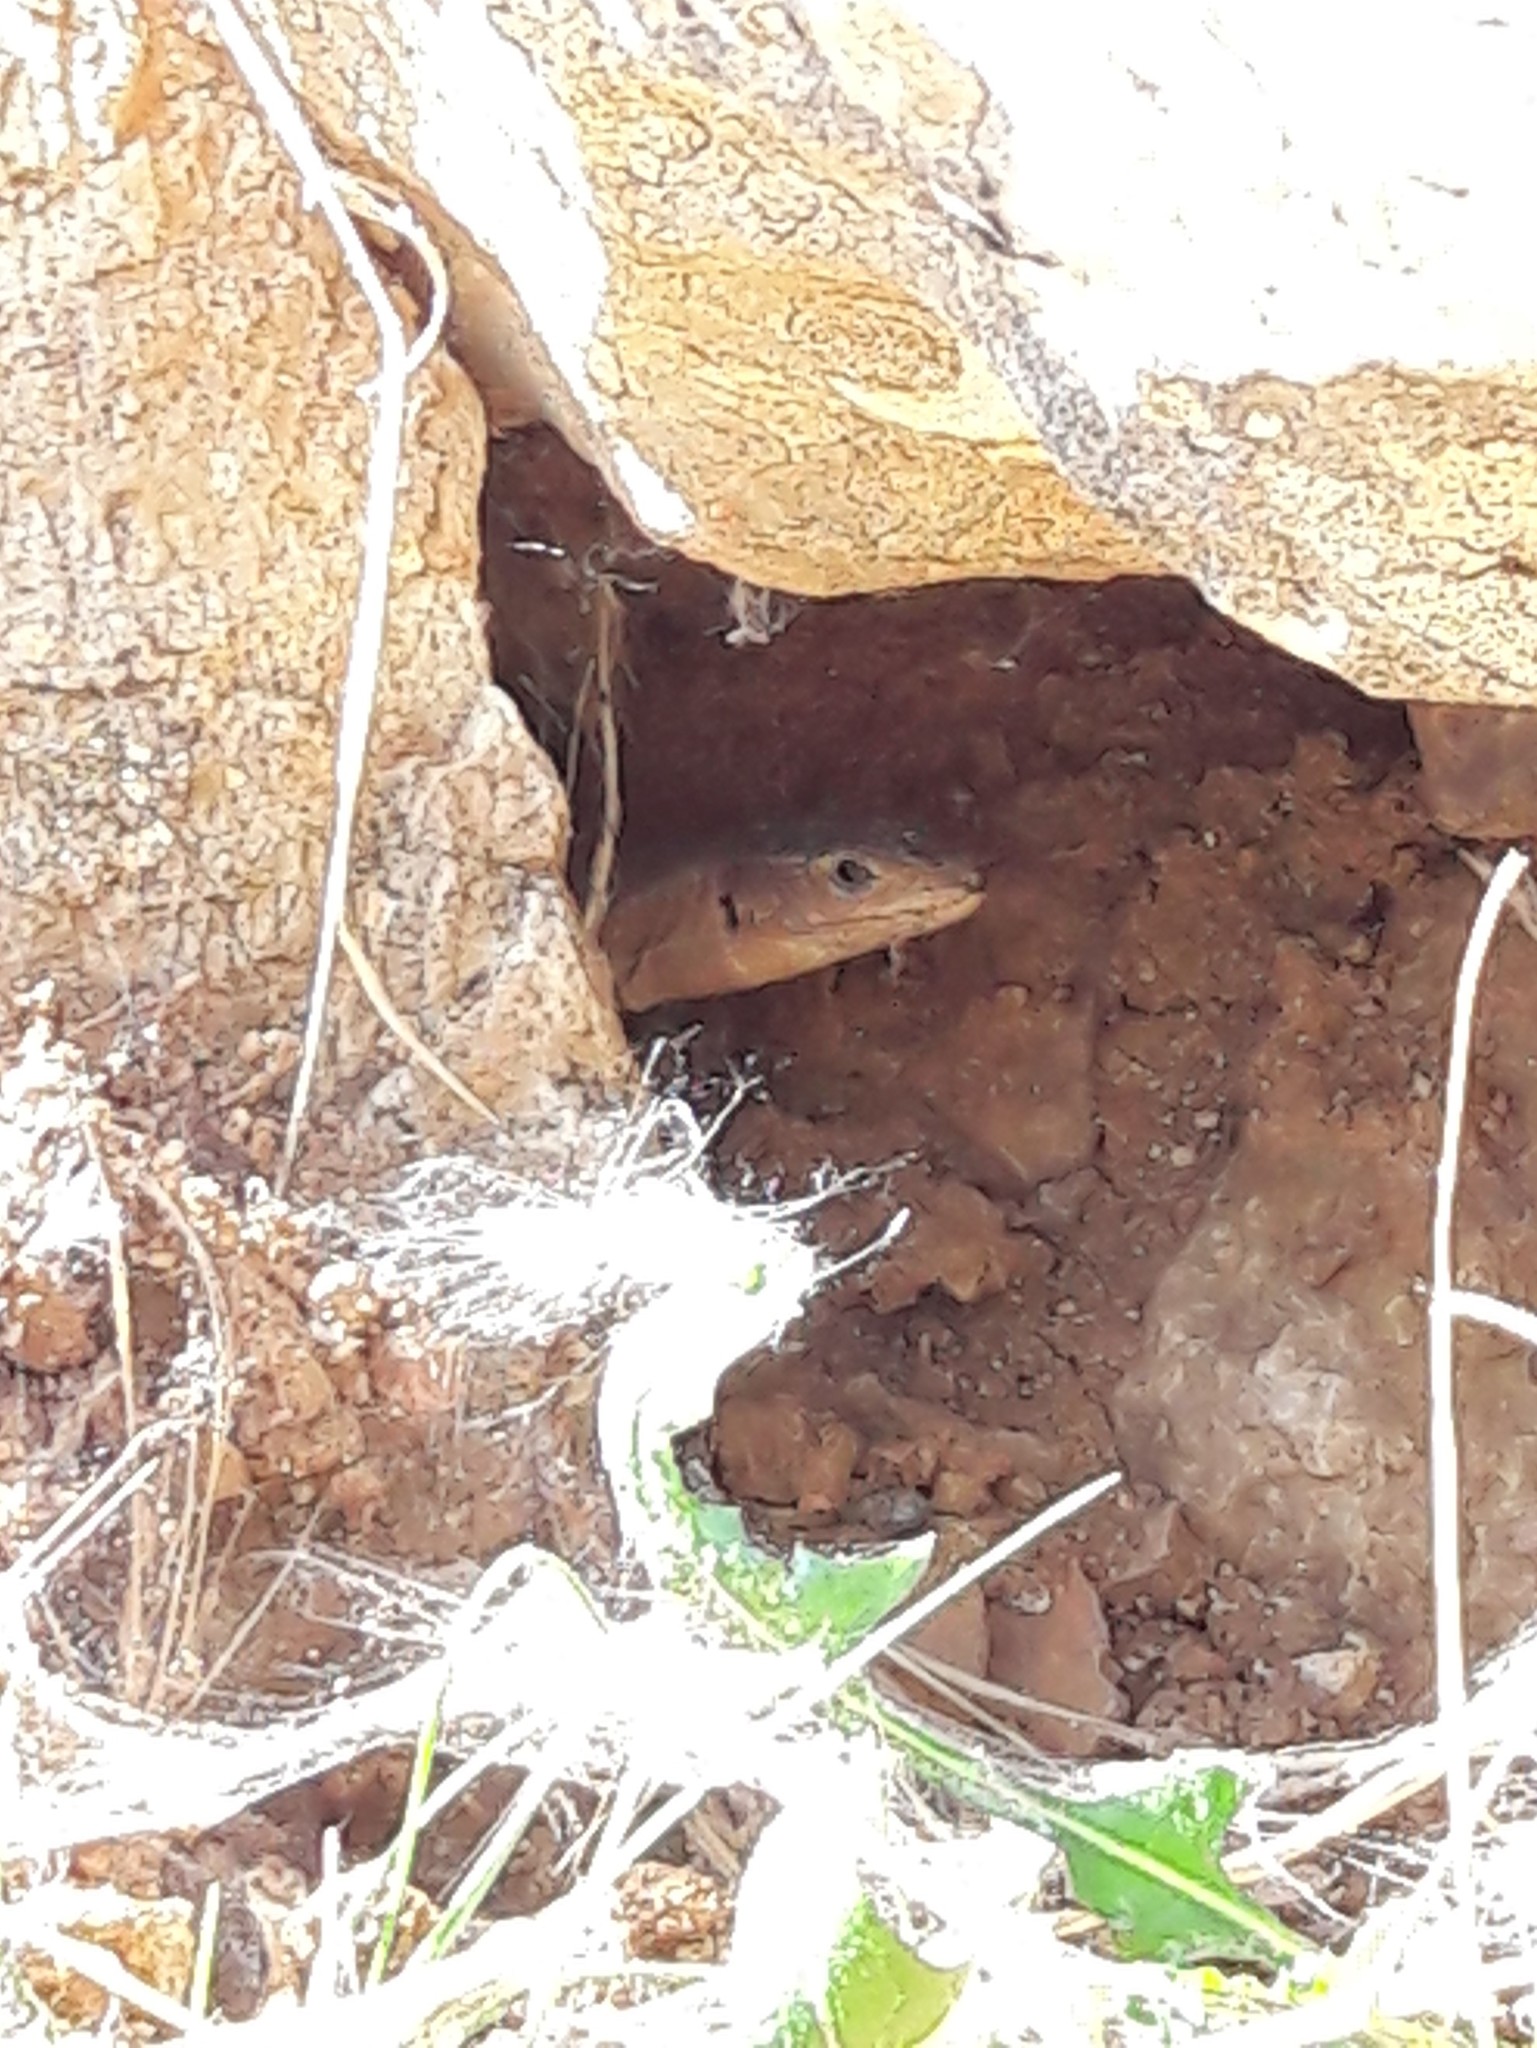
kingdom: Animalia
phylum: Chordata
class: Squamata
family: Lacertidae
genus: Podarcis
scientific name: Podarcis peloponnesiacus
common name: Peloponnese wall lizard
